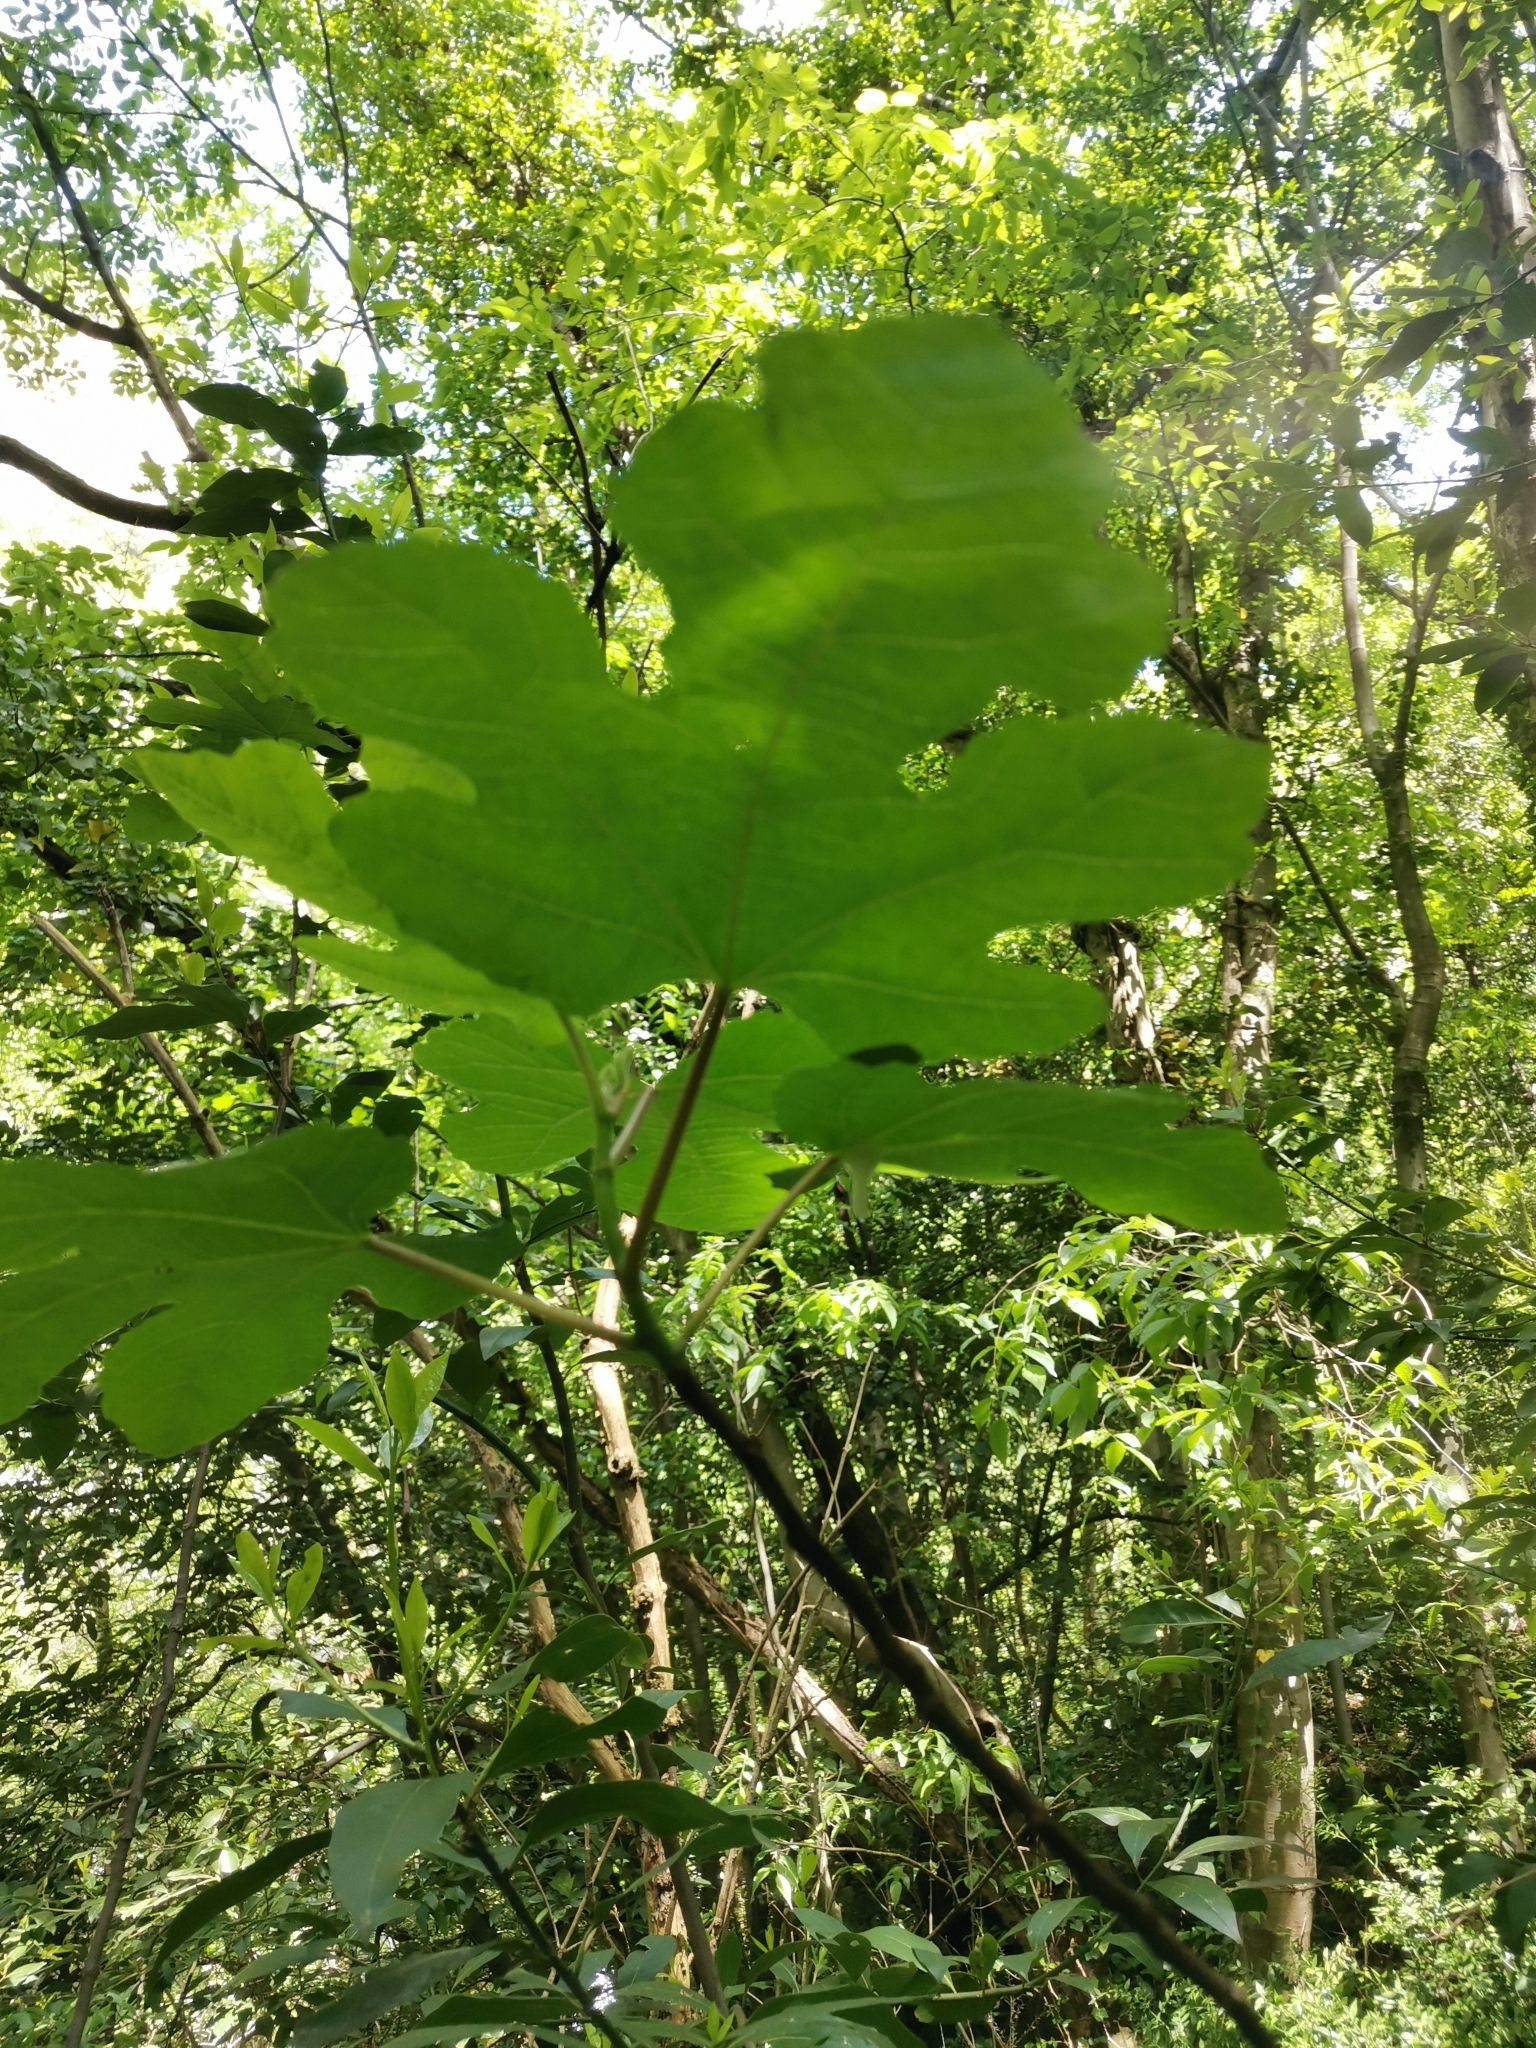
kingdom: Plantae
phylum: Tracheophyta
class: Magnoliopsida
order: Rosales
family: Moraceae
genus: Ficus
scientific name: Ficus carica
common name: Fig
